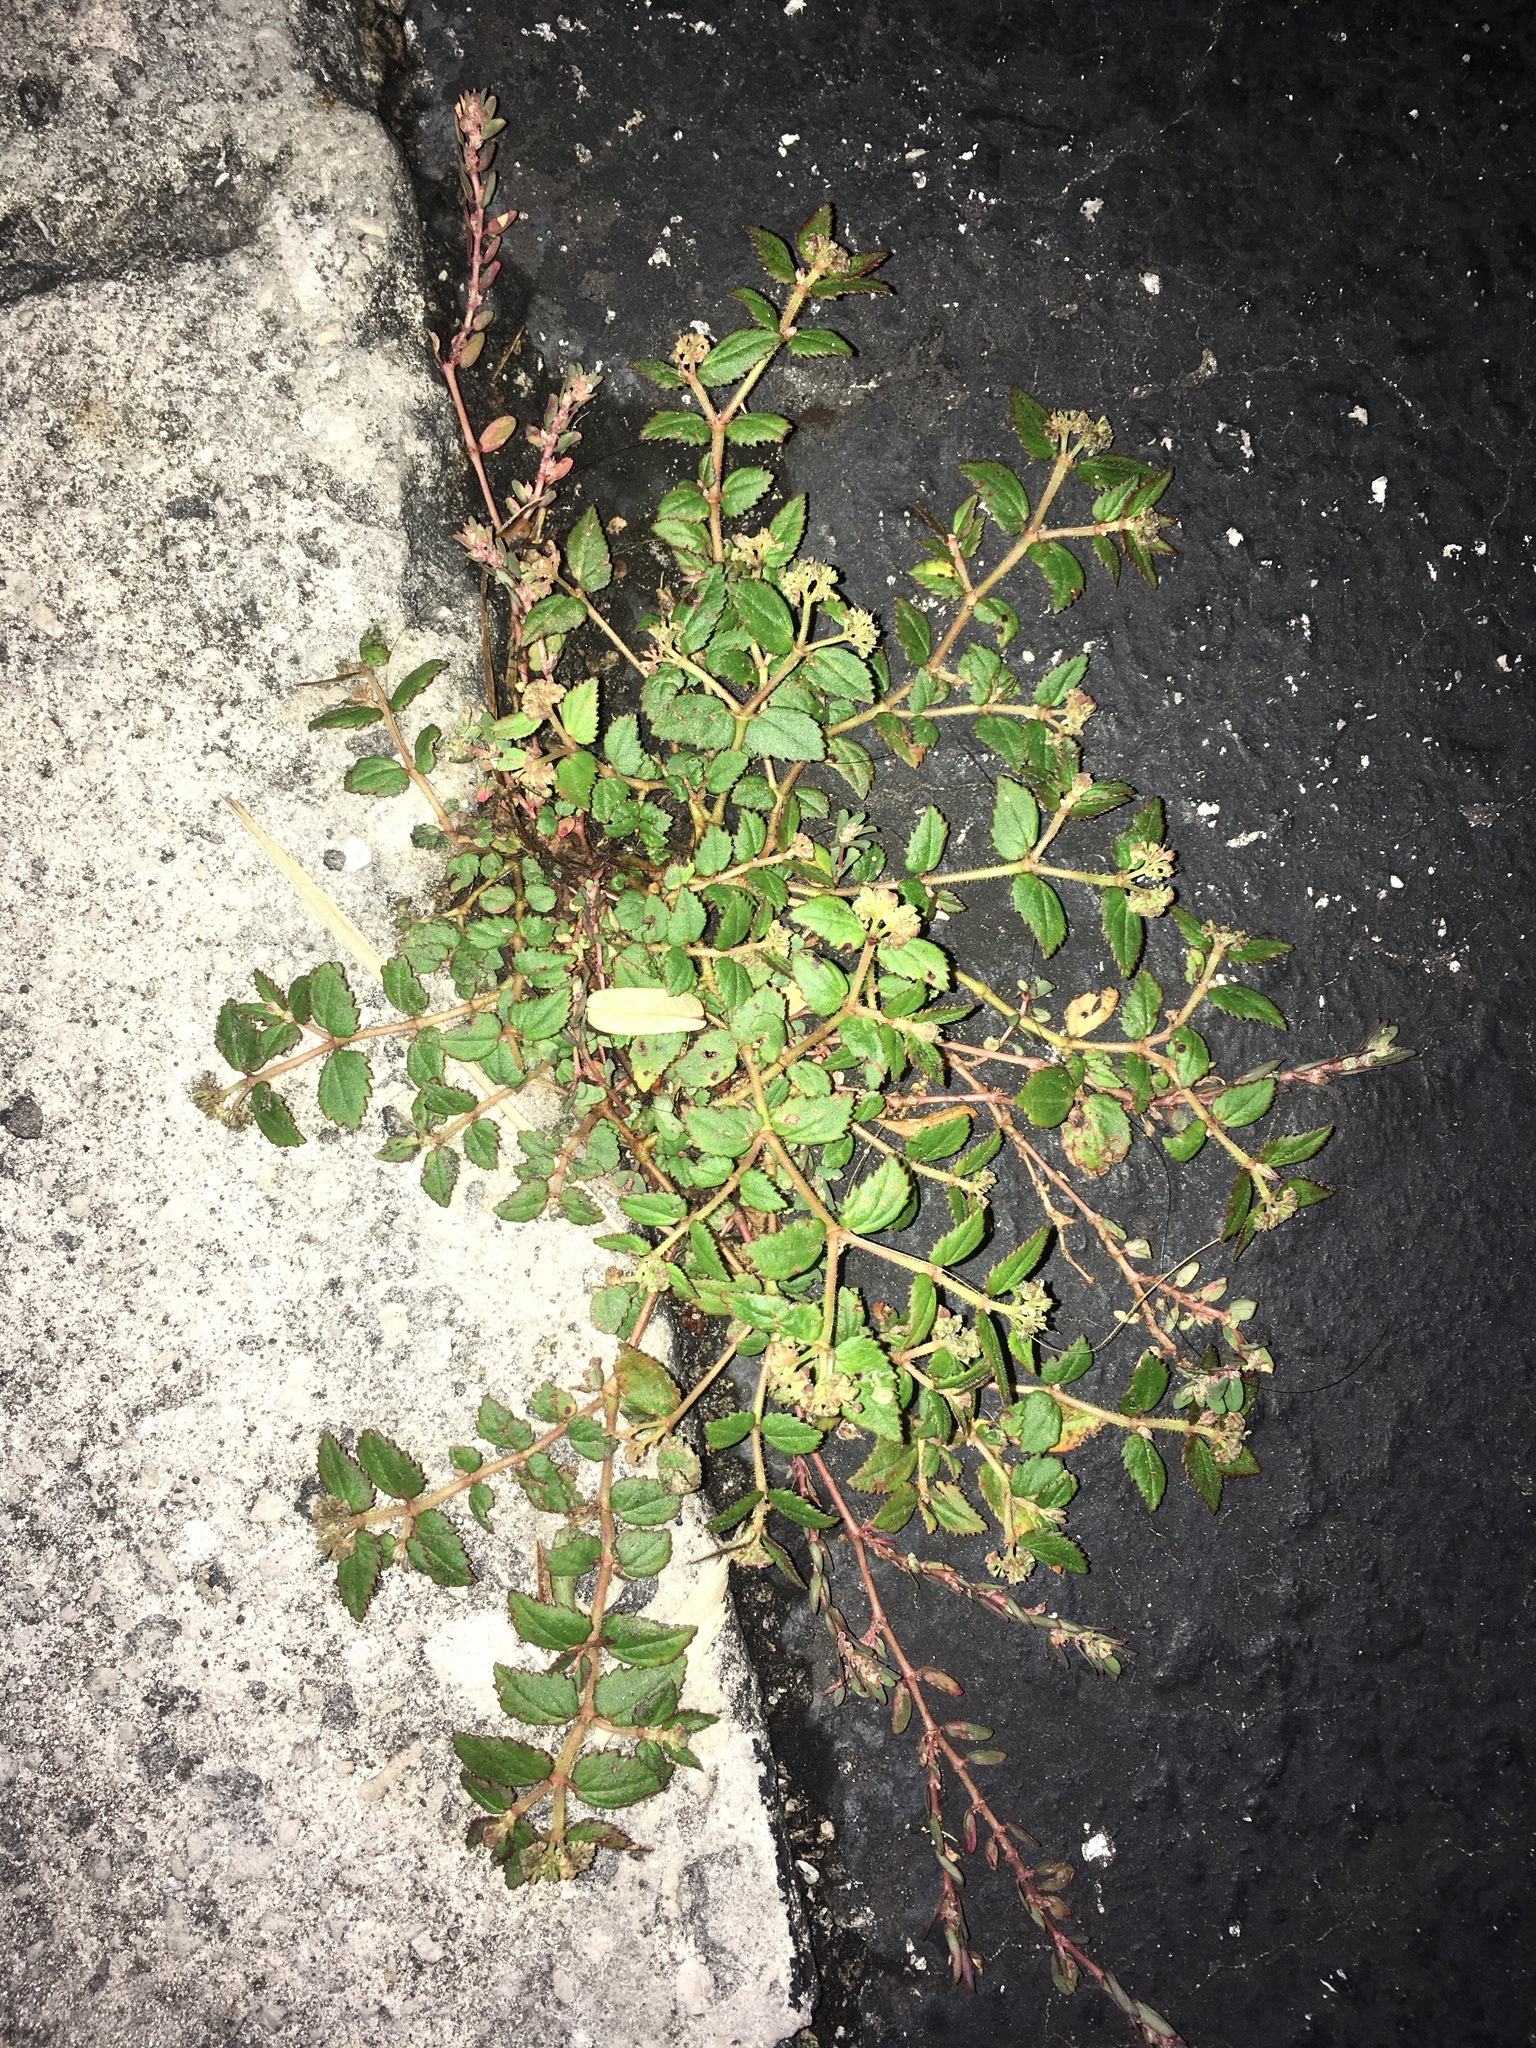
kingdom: Plantae
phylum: Tracheophyta
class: Magnoliopsida
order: Malpighiales
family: Euphorbiaceae
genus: Euphorbia
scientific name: Euphorbia ophthalmica
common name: Florida hammock sandmat
